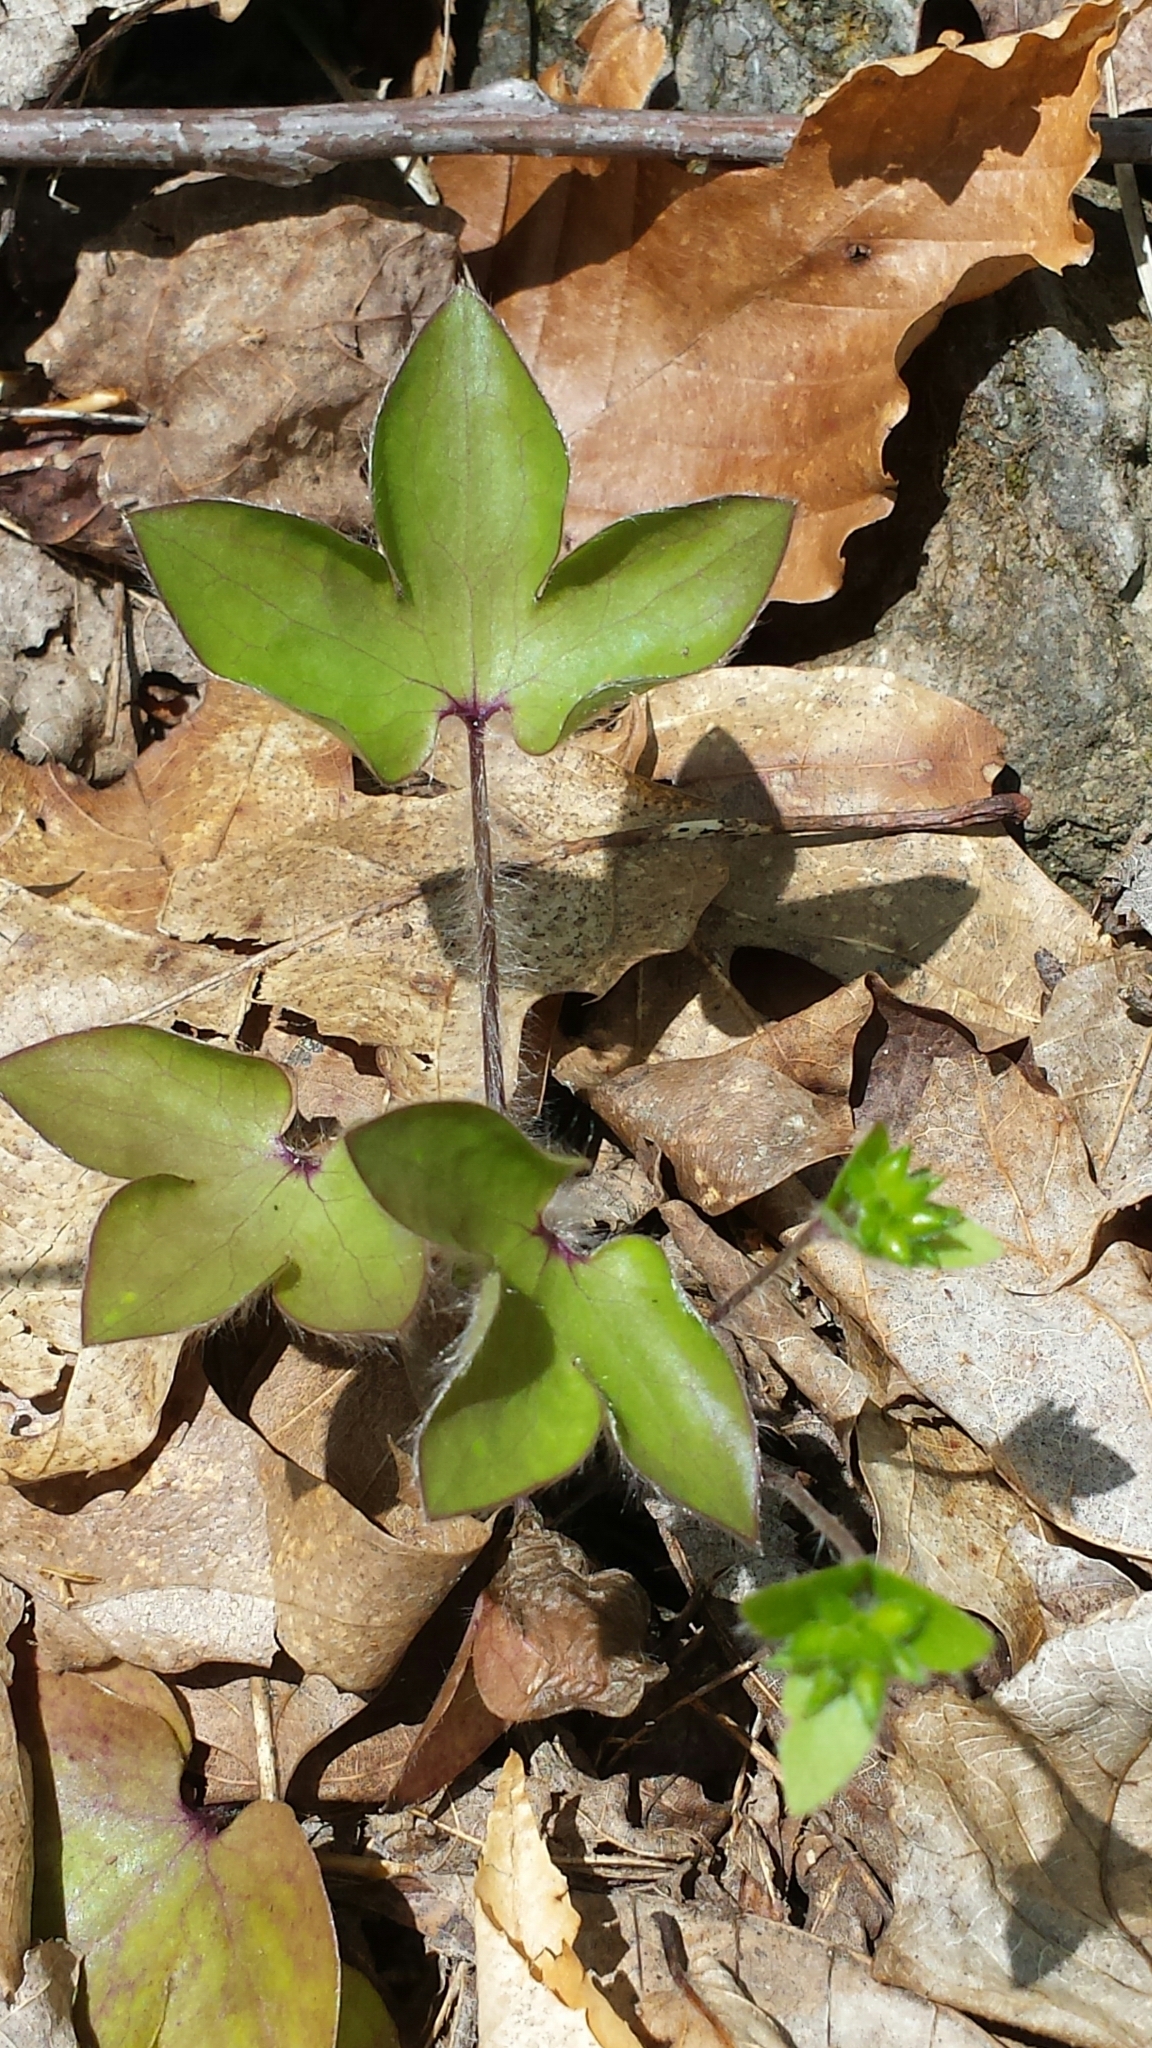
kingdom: Plantae
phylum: Tracheophyta
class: Magnoliopsida
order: Ranunculales
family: Ranunculaceae
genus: Hepatica
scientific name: Hepatica acutiloba
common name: Sharp-lobed hepatica
